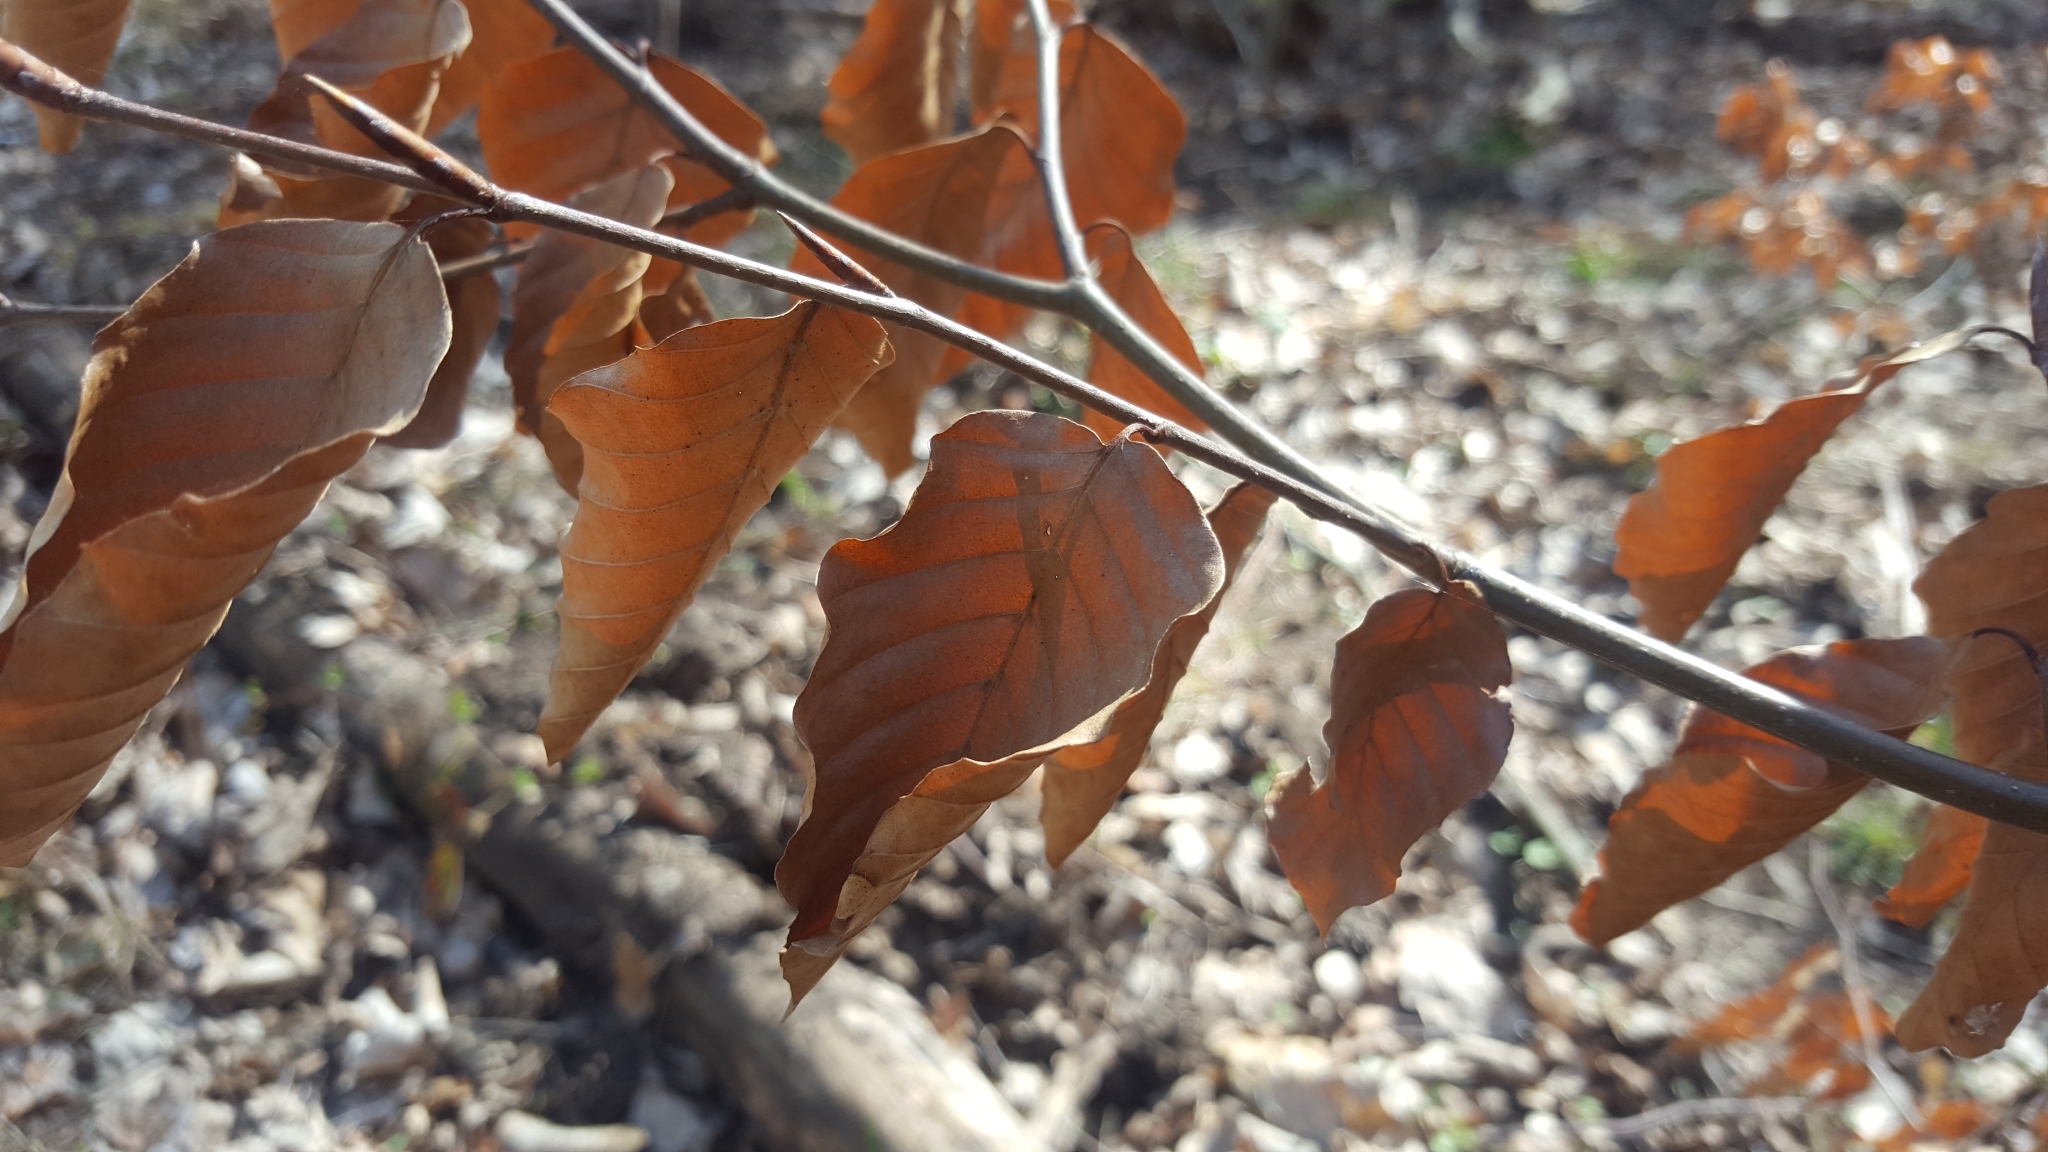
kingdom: Plantae
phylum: Tracheophyta
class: Magnoliopsida
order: Fagales
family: Fagaceae
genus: Fagus
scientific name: Fagus sylvatica
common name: Beech
